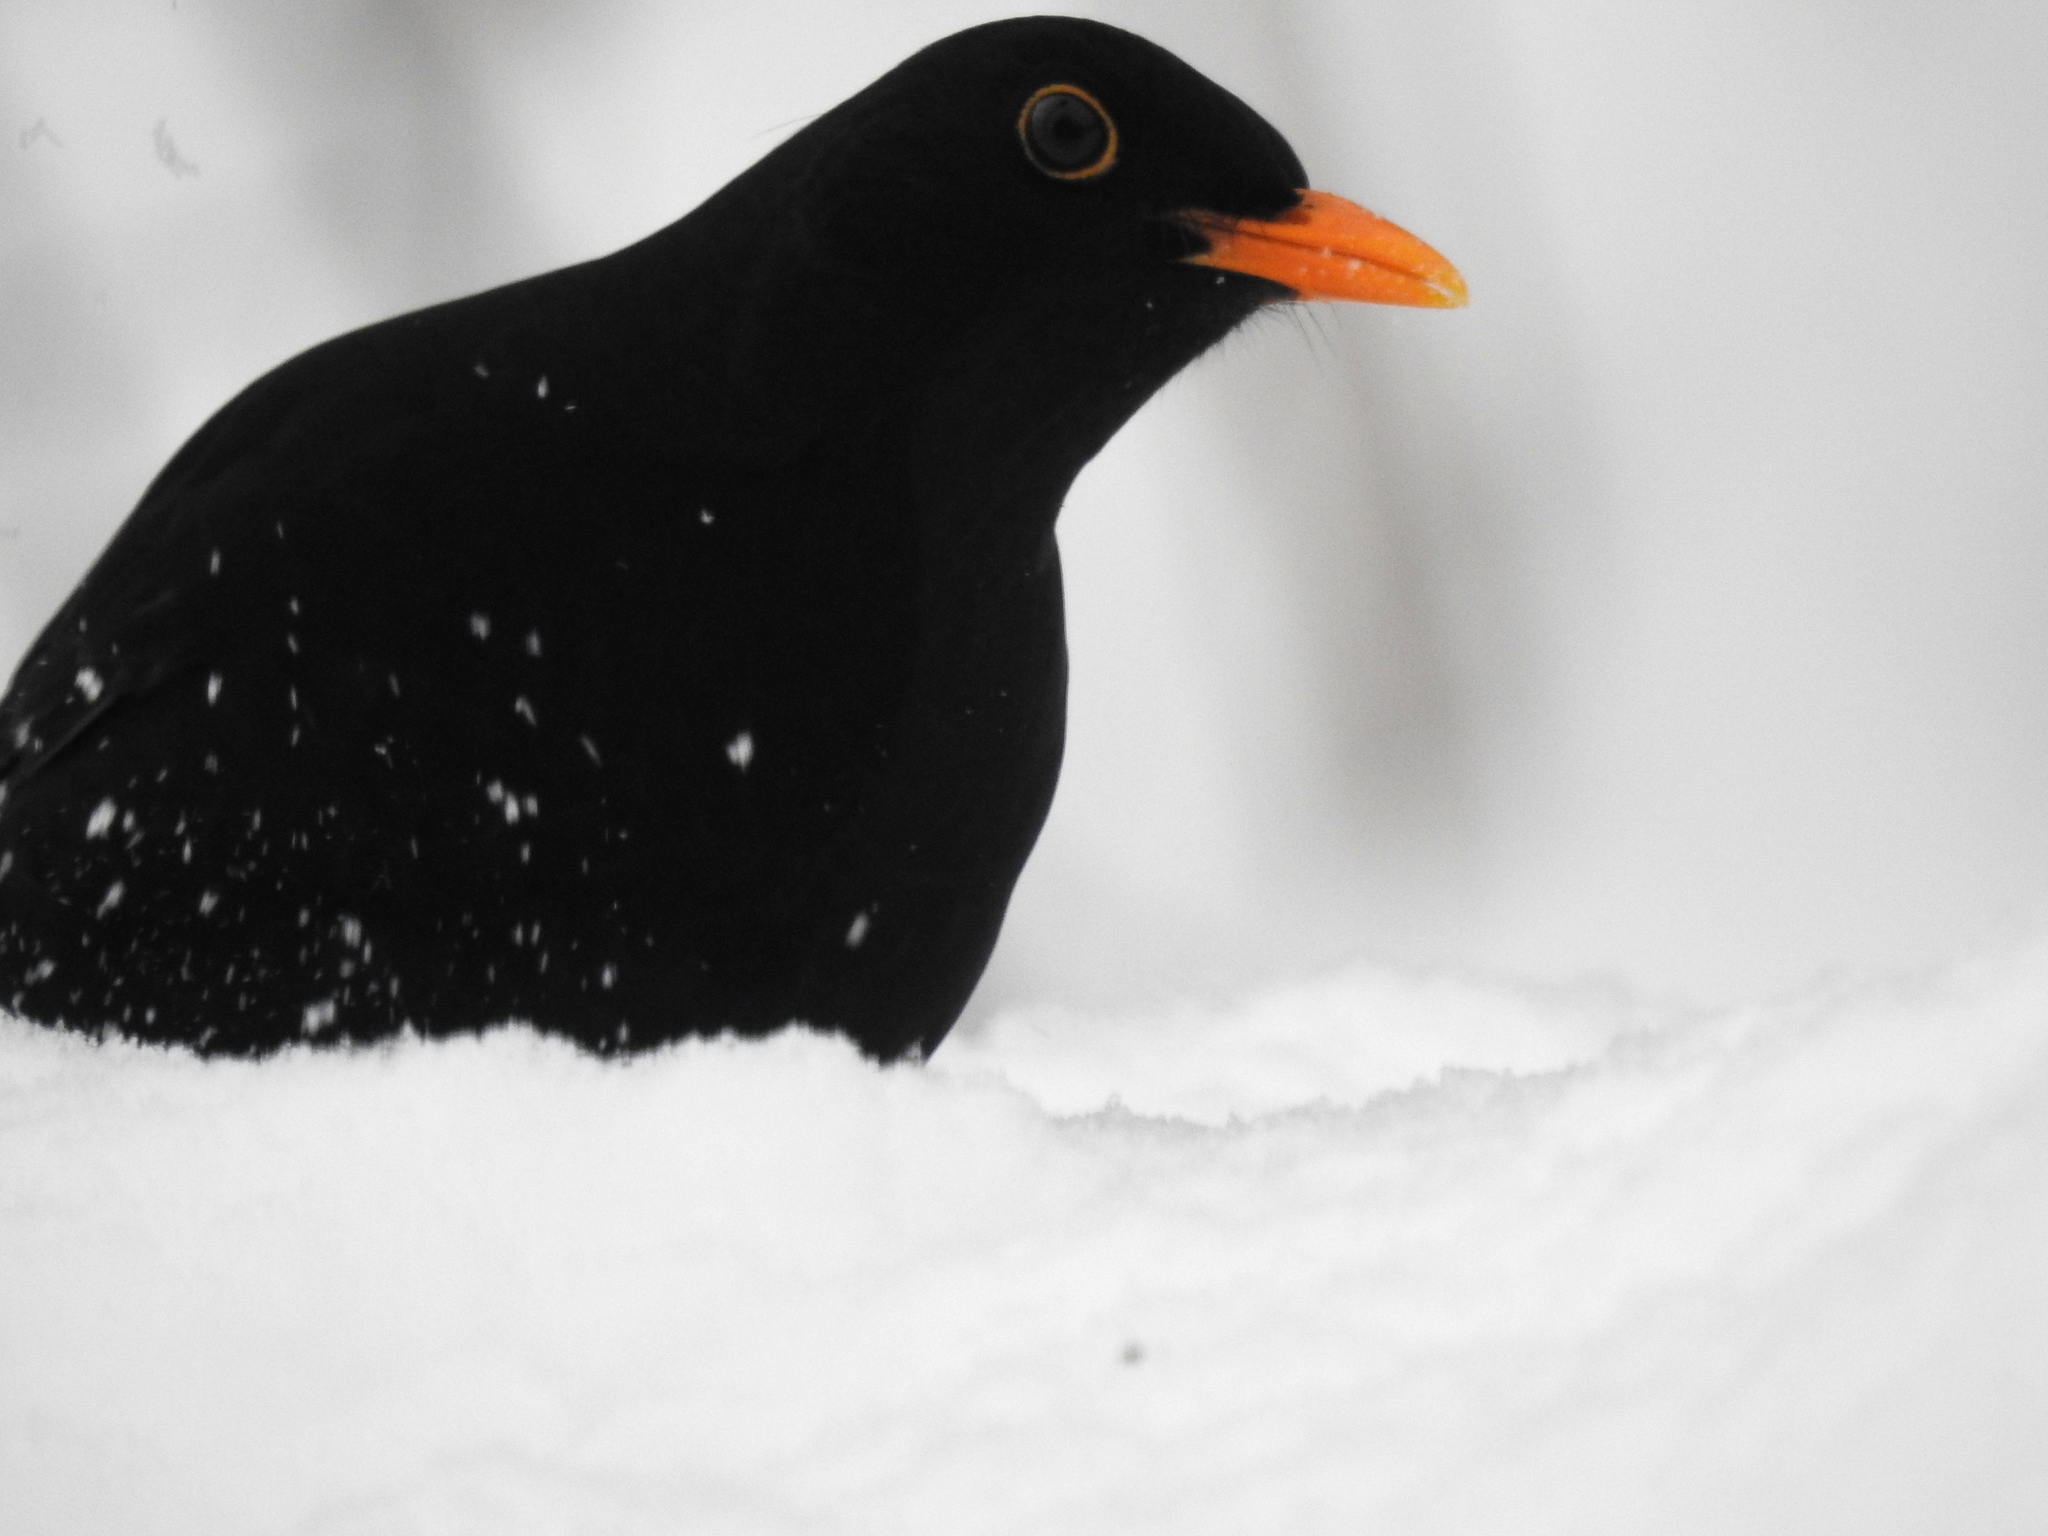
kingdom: Animalia
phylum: Chordata
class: Aves
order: Passeriformes
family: Turdidae
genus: Turdus
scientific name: Turdus merula
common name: Common blackbird
